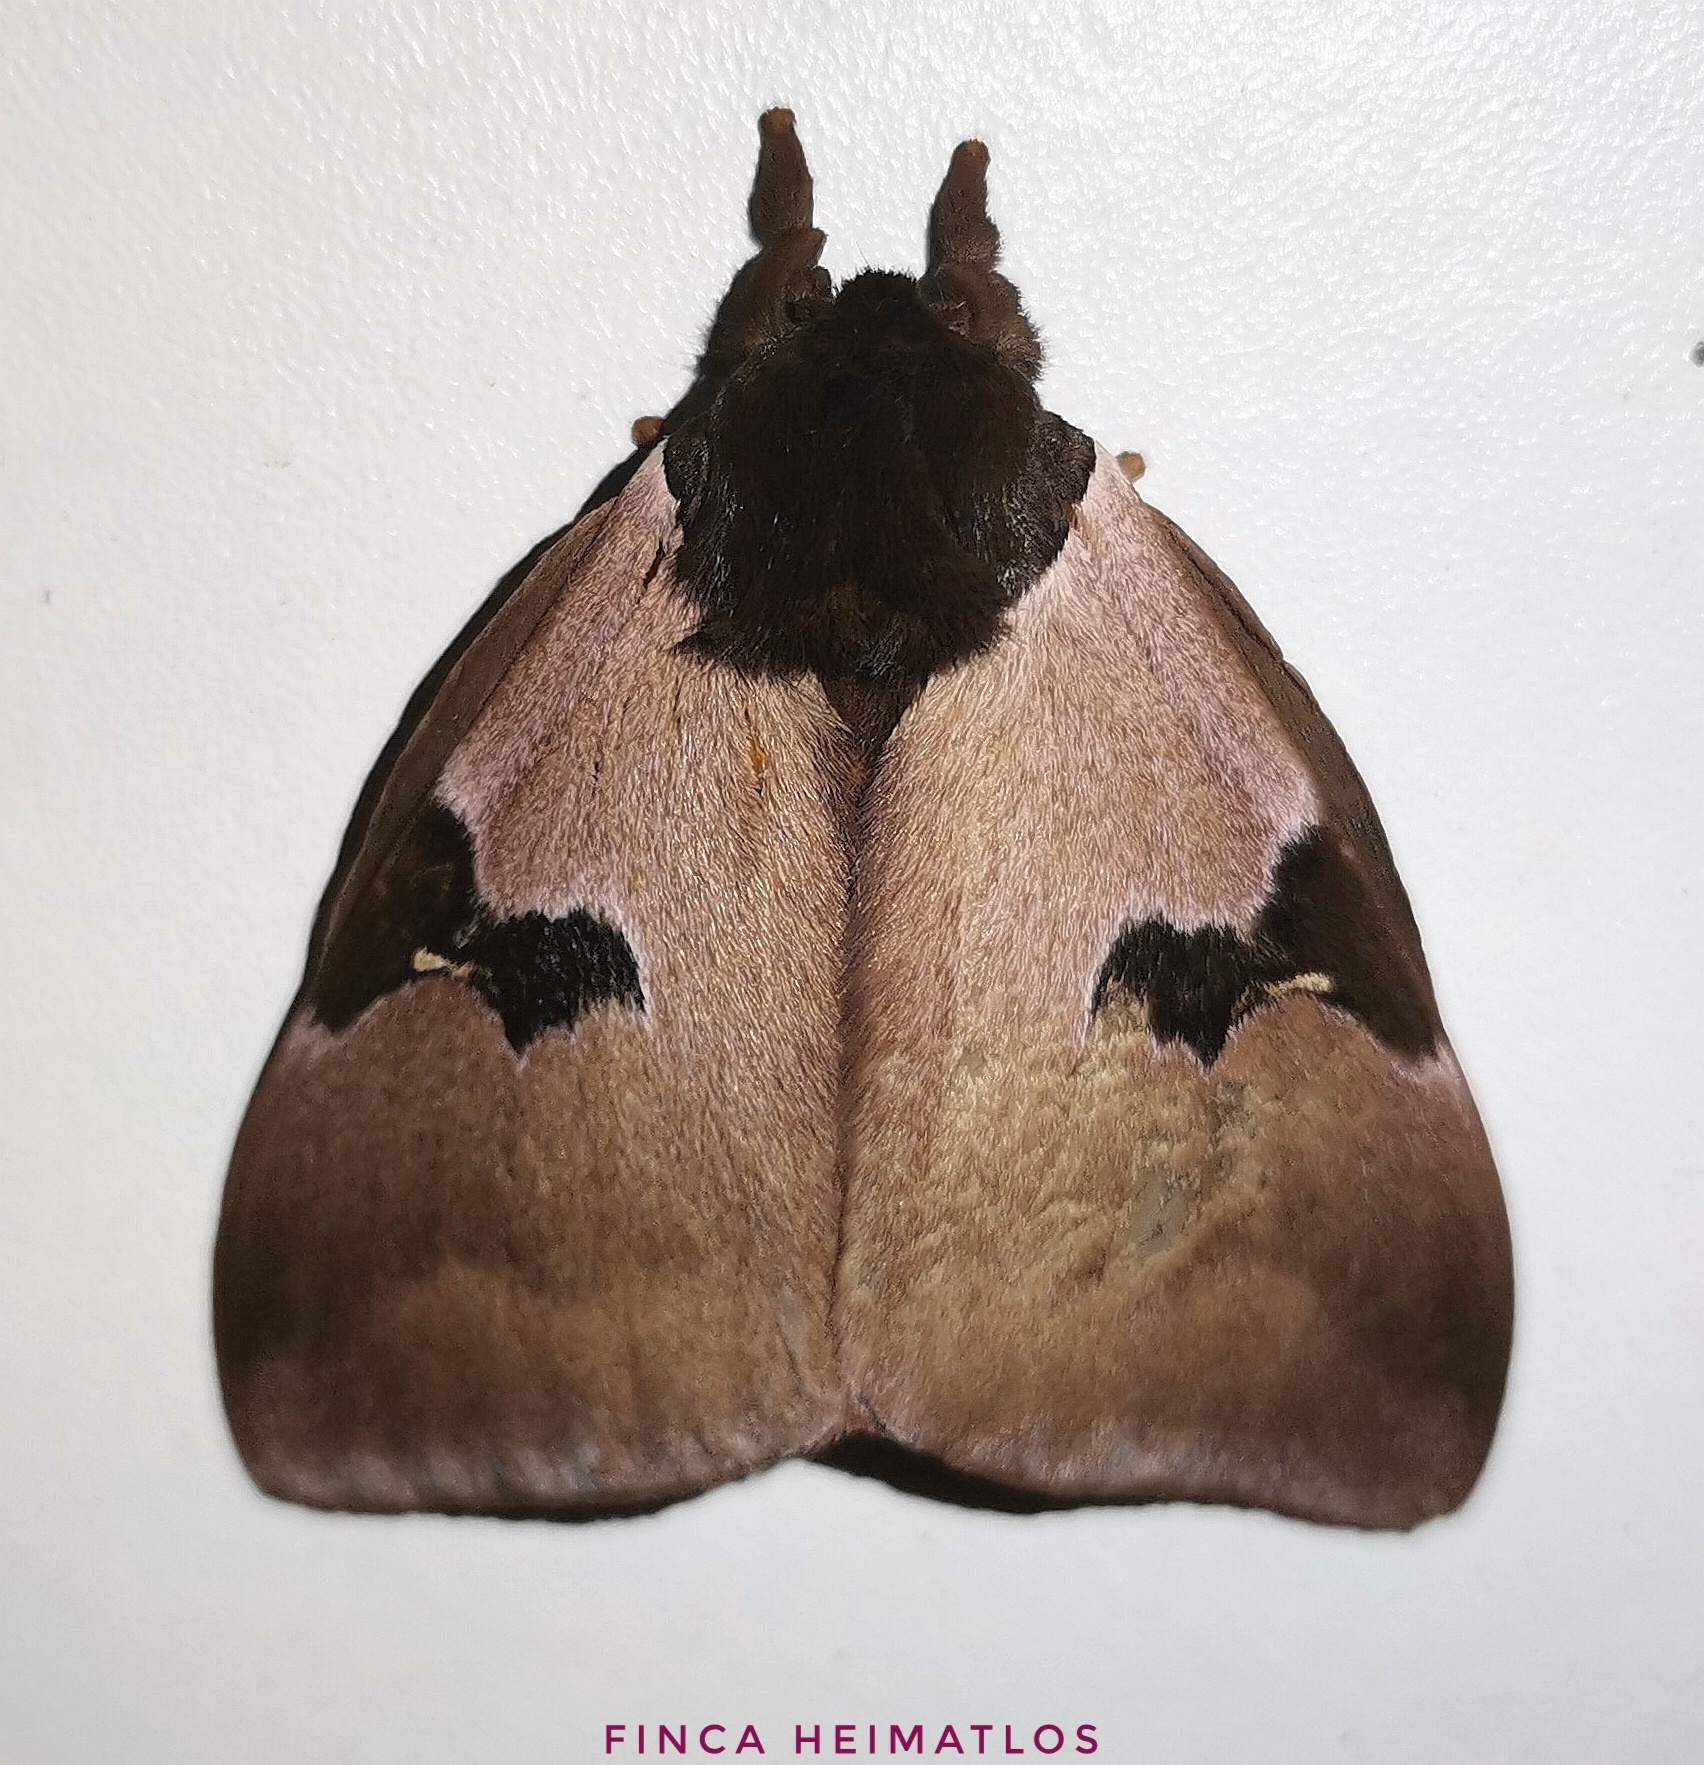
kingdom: Animalia
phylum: Arthropoda
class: Insecta
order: Lepidoptera
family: Saturniidae
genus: Dirphia
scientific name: Dirphia
